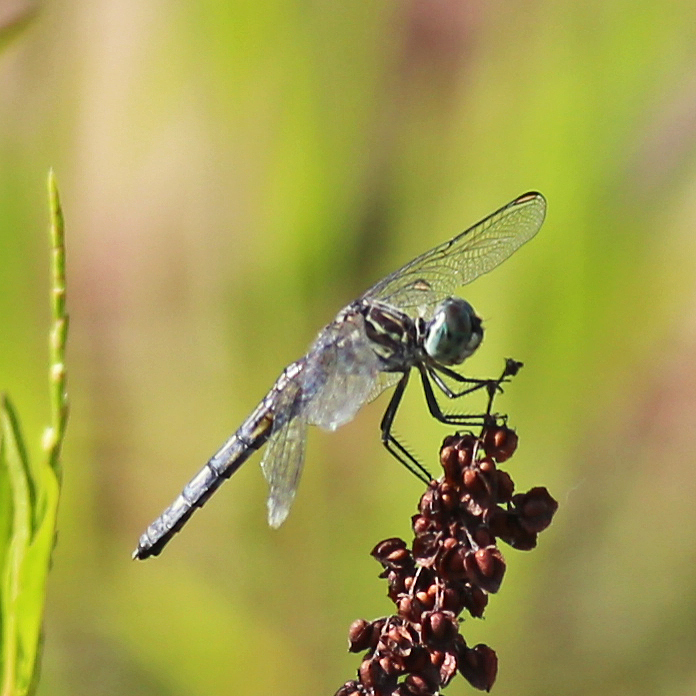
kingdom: Animalia
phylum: Arthropoda
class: Insecta
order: Odonata
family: Libellulidae
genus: Pachydiplax
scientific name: Pachydiplax longipennis
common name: Blue dasher
